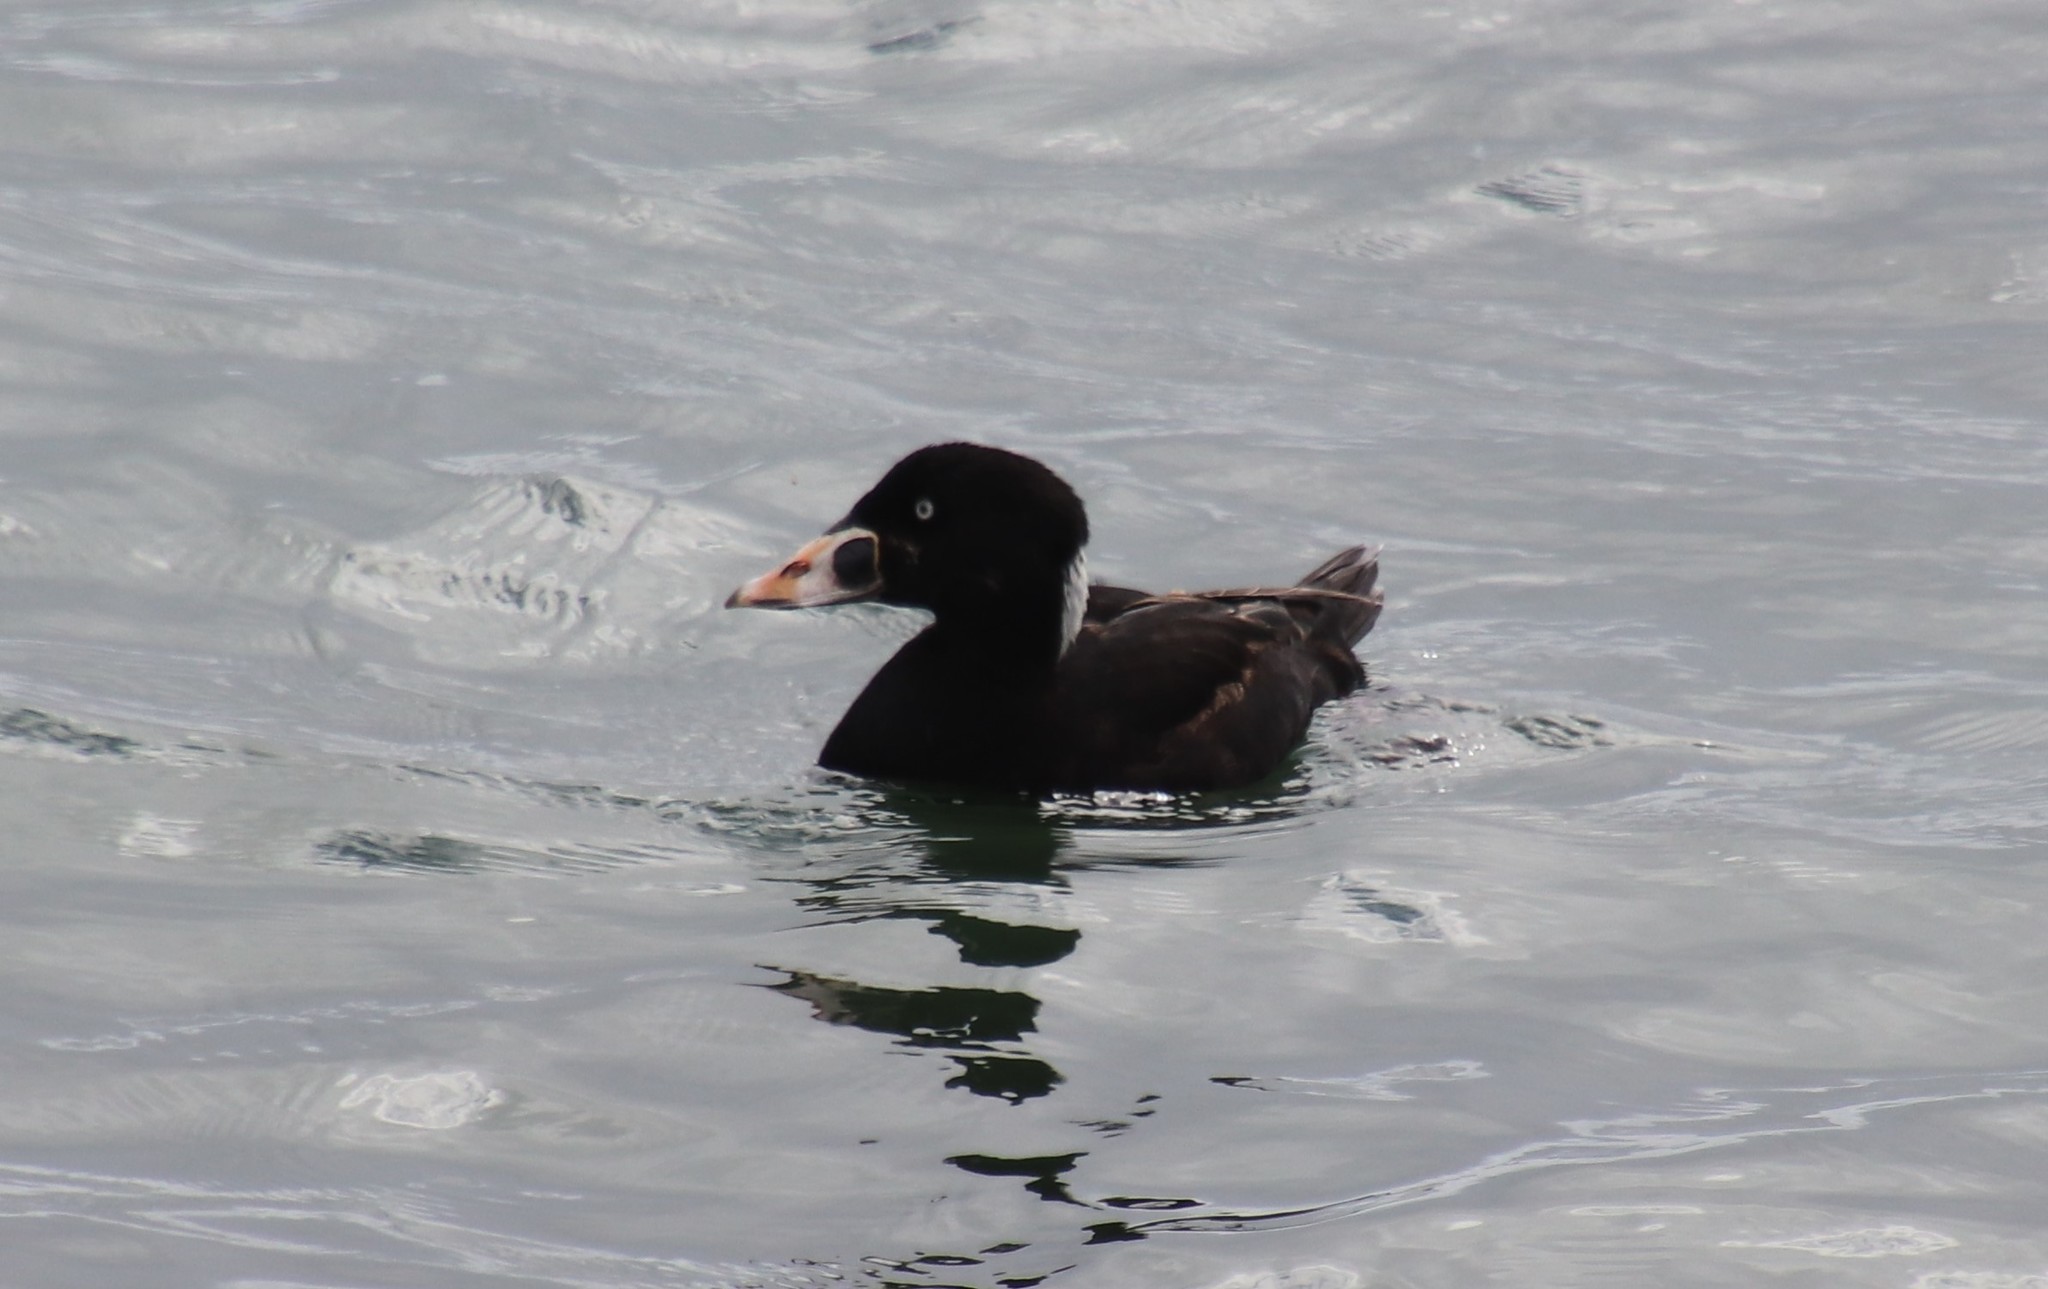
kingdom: Animalia
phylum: Chordata
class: Aves
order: Anseriformes
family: Anatidae
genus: Melanitta
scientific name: Melanitta perspicillata
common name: Surf scoter
